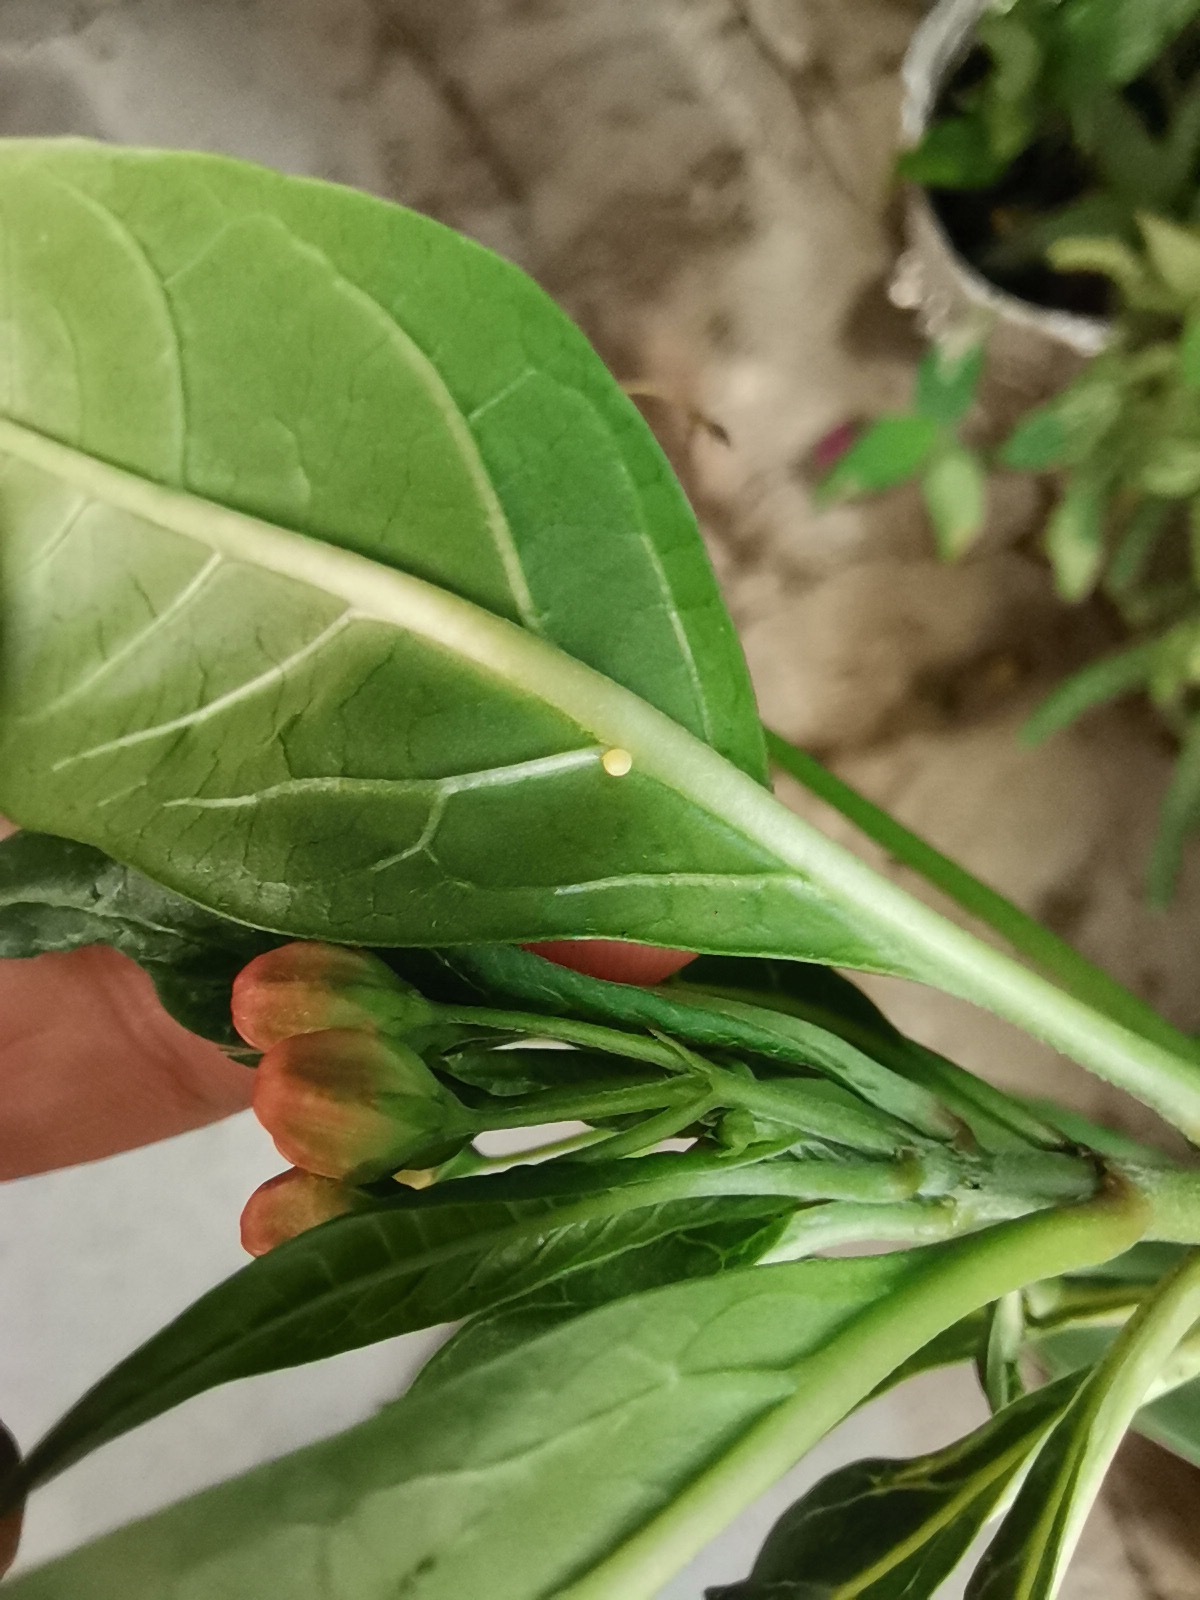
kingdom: Animalia
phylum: Arthropoda
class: Insecta
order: Lepidoptera
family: Nymphalidae
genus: Danaus
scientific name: Danaus plexippus
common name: Monarch
